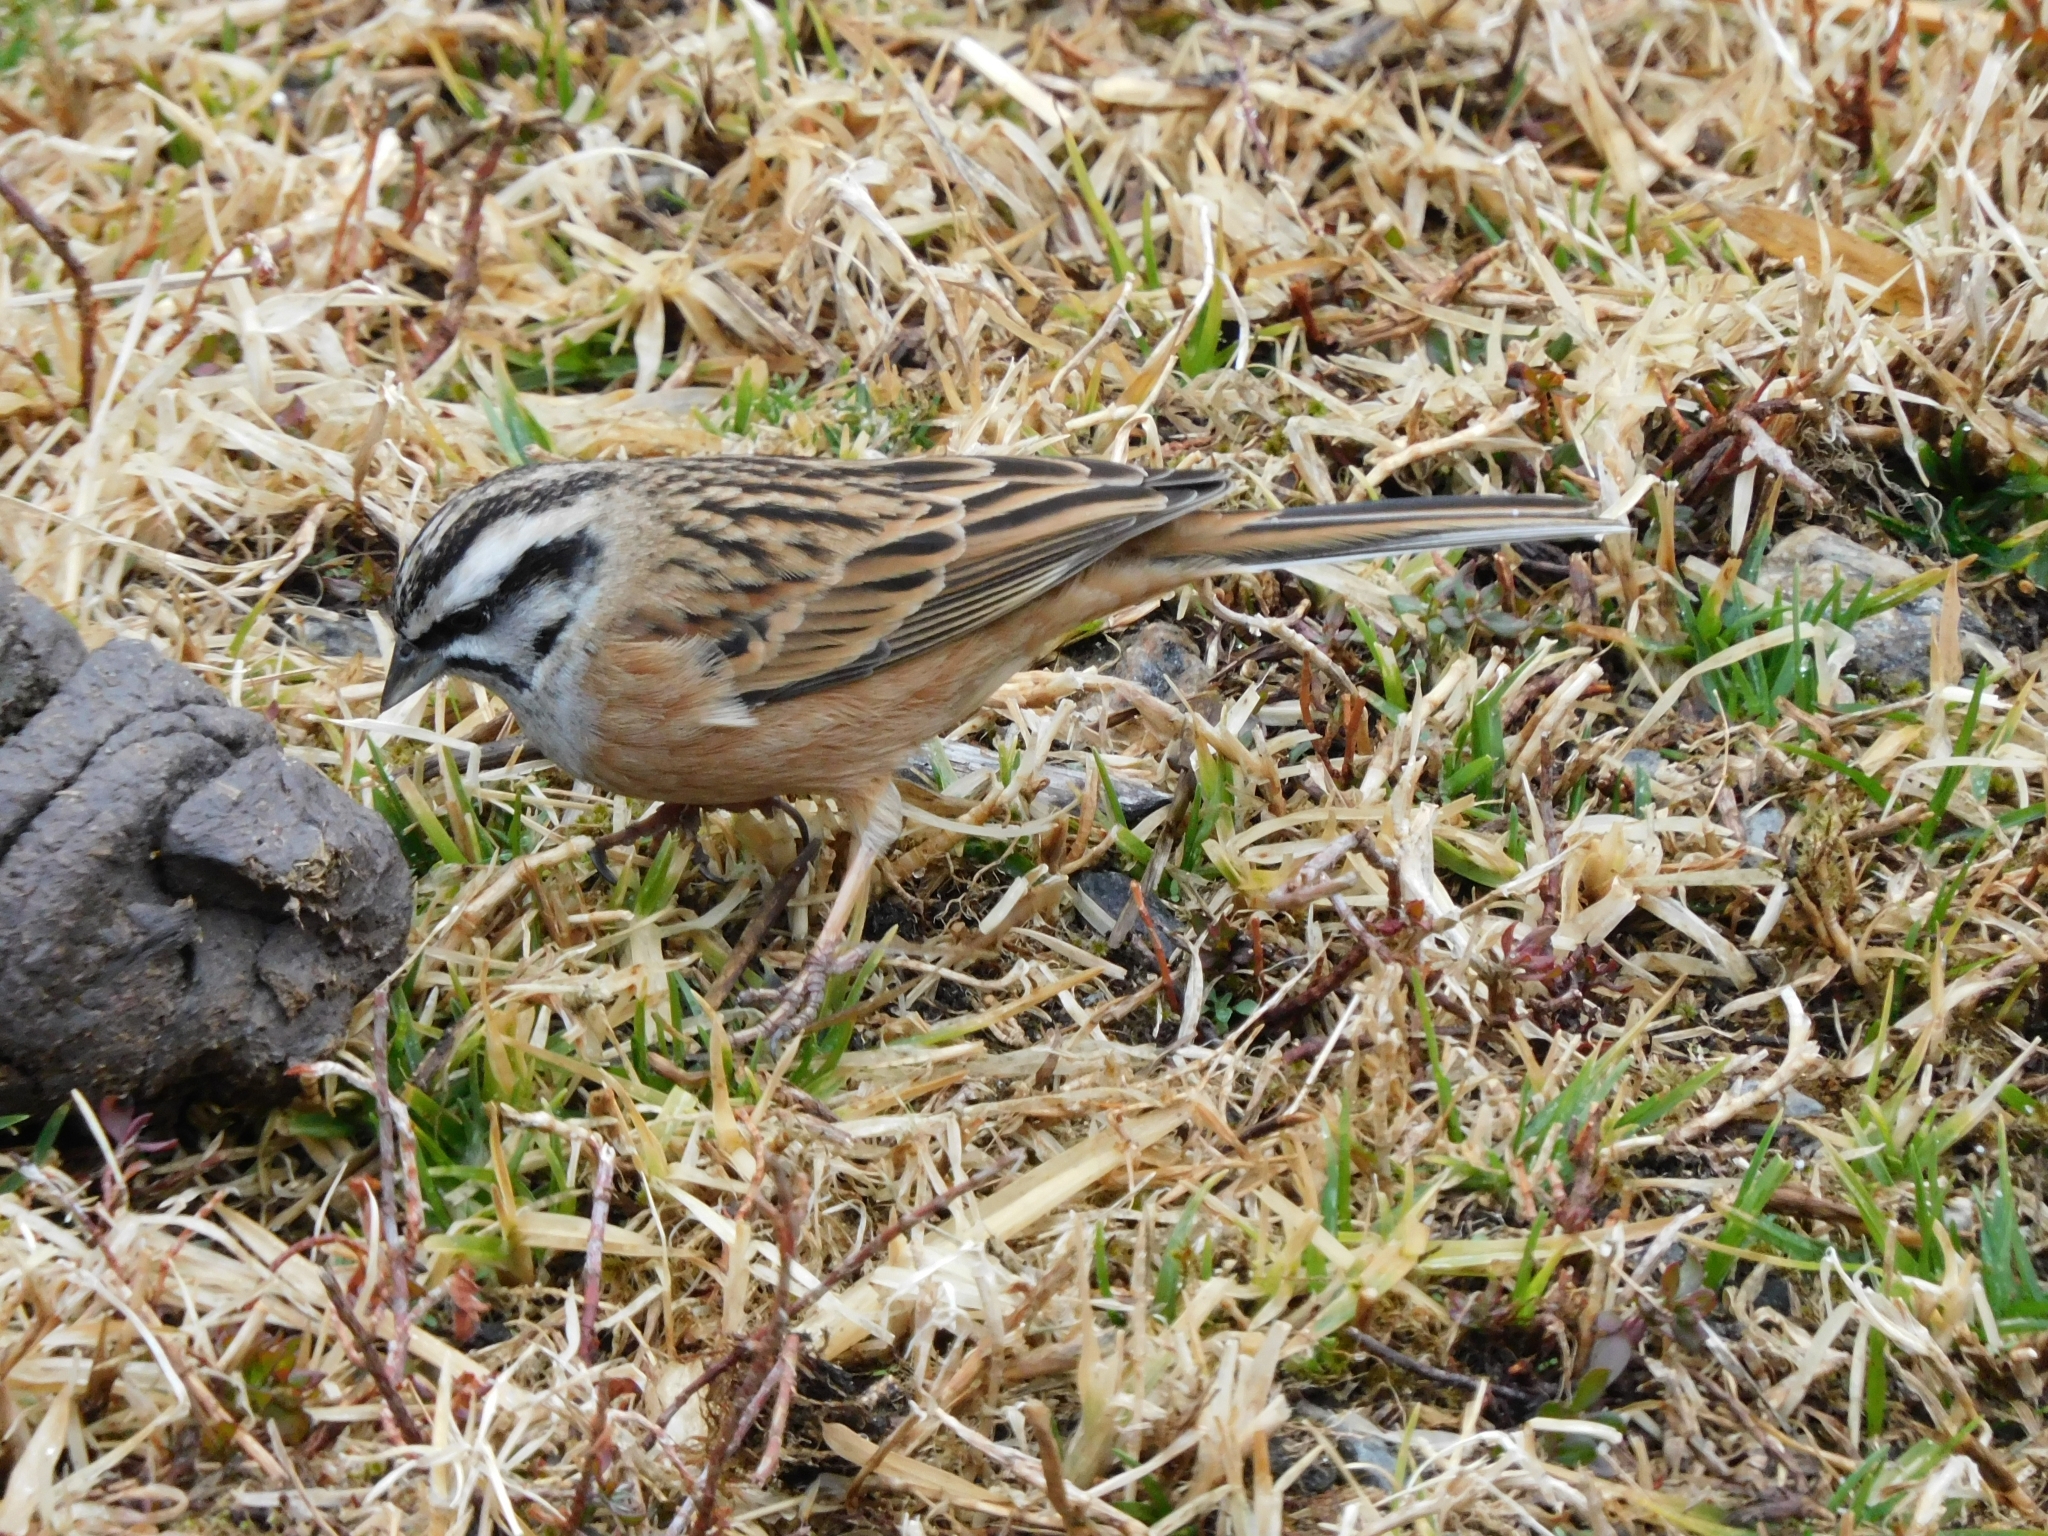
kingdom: Animalia
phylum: Chordata
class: Aves
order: Passeriformes
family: Emberizidae
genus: Emberiza
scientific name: Emberiza cia
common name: Rock bunting
